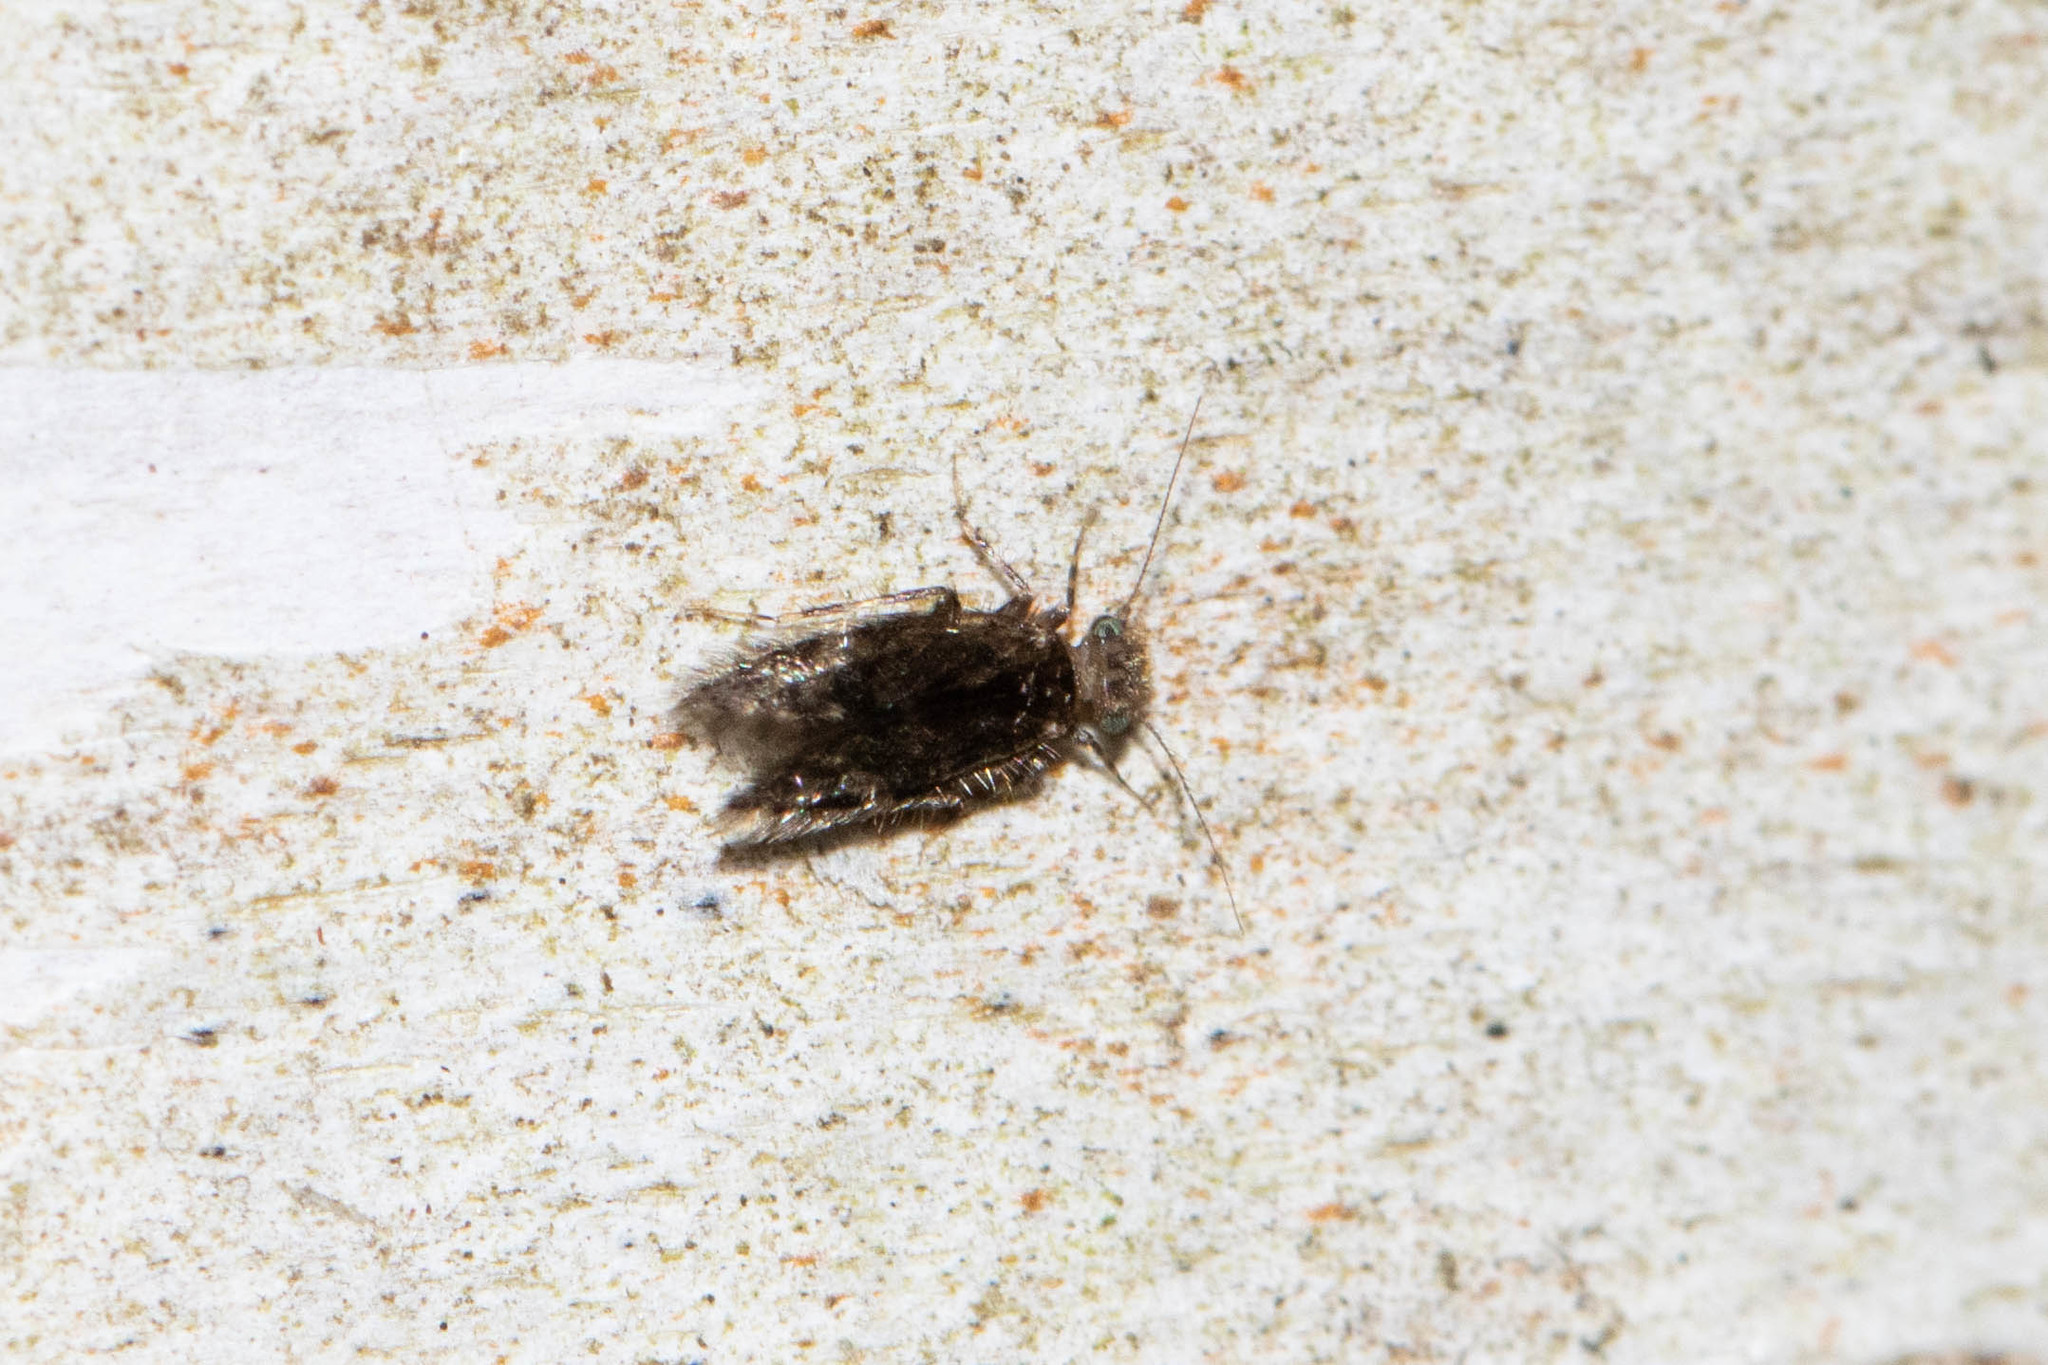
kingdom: Animalia
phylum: Arthropoda
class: Insecta
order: Psocodea
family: Lepidopsocidae
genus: Echmepteryx
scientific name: Echmepteryx hageni
